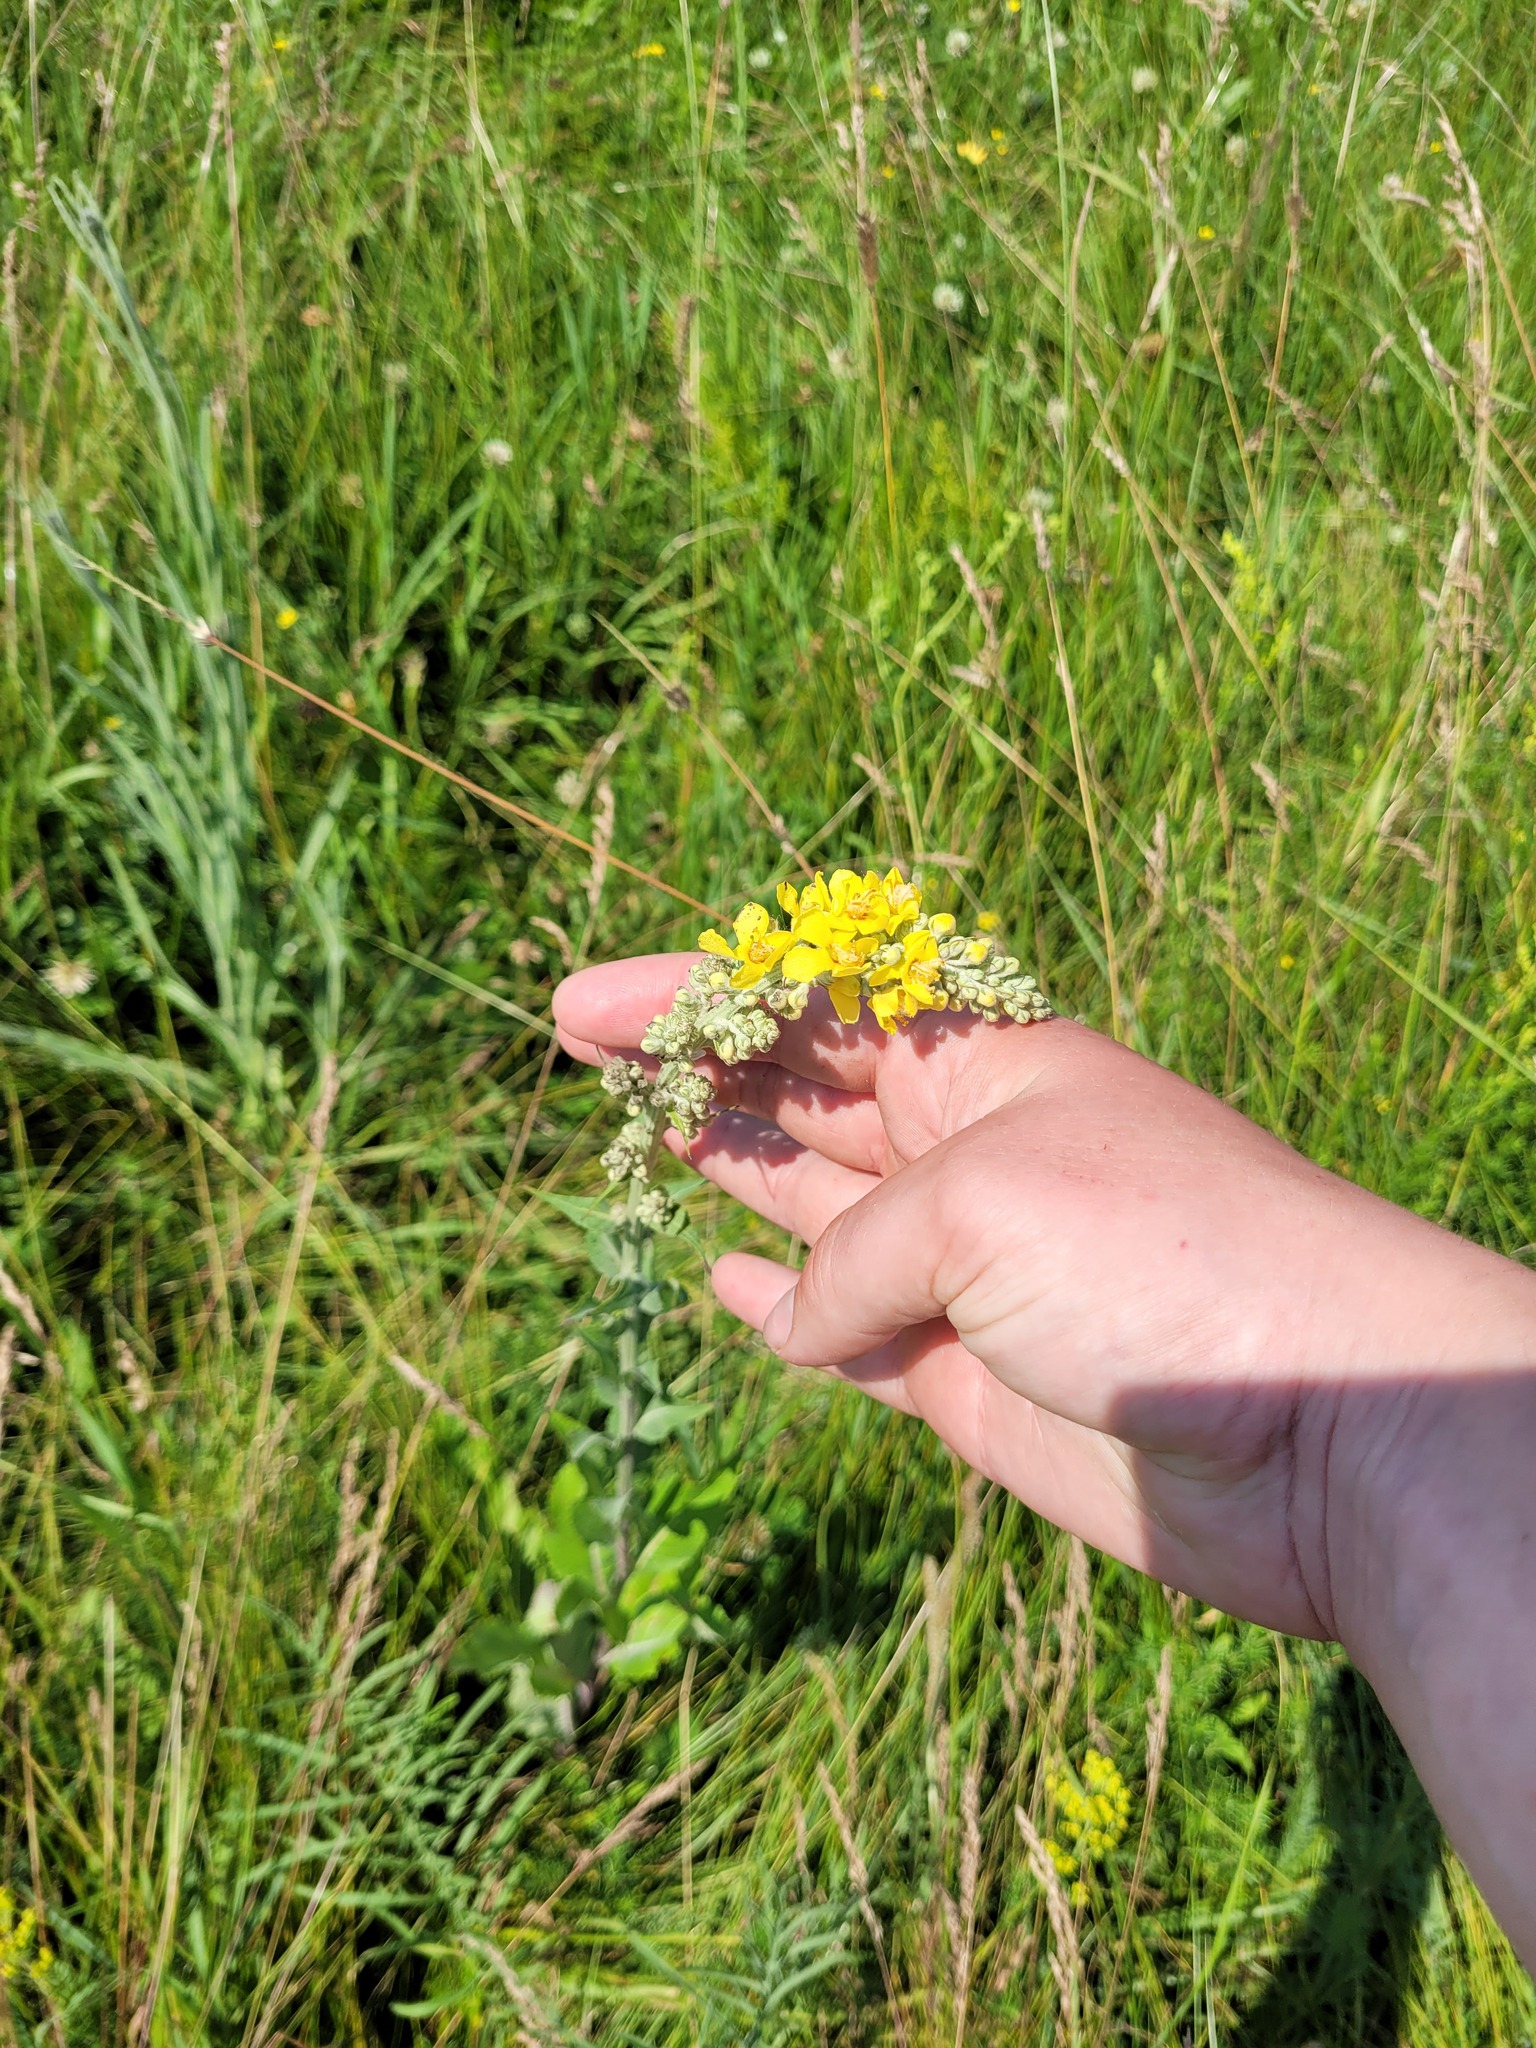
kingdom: Plantae
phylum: Tracheophyta
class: Magnoliopsida
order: Lamiales
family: Scrophulariaceae
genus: Verbascum
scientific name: Verbascum lychnitis
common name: White mullein
